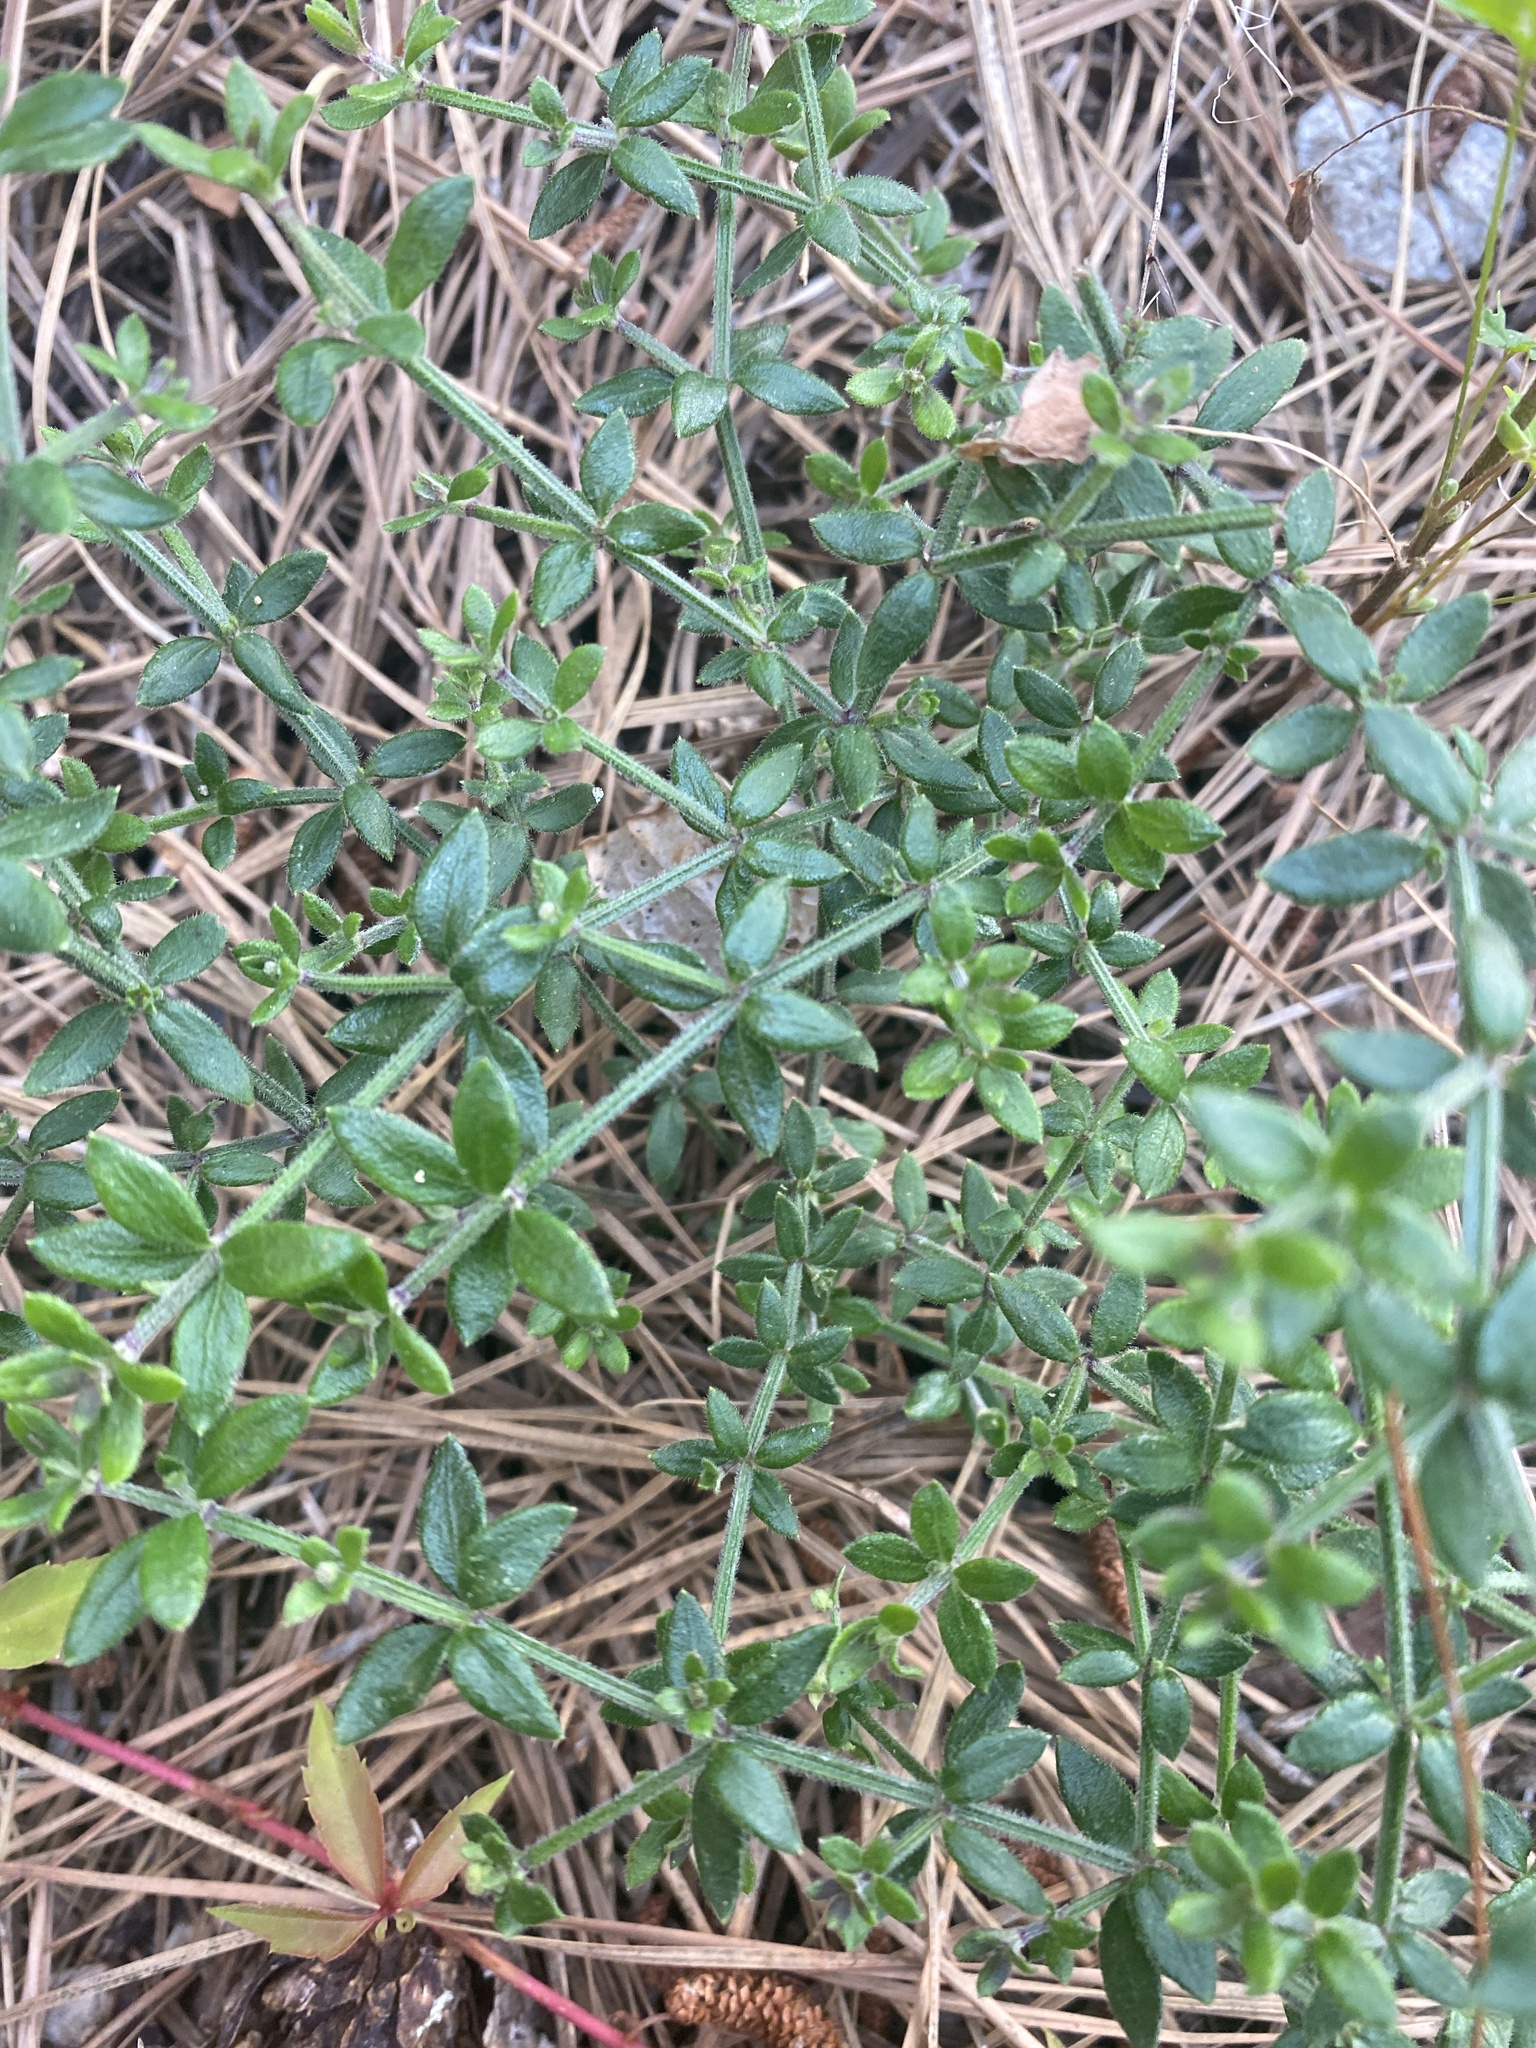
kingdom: Plantae
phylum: Tracheophyta
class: Magnoliopsida
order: Gentianales
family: Rubiaceae
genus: Galium
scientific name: Galium bermudense
